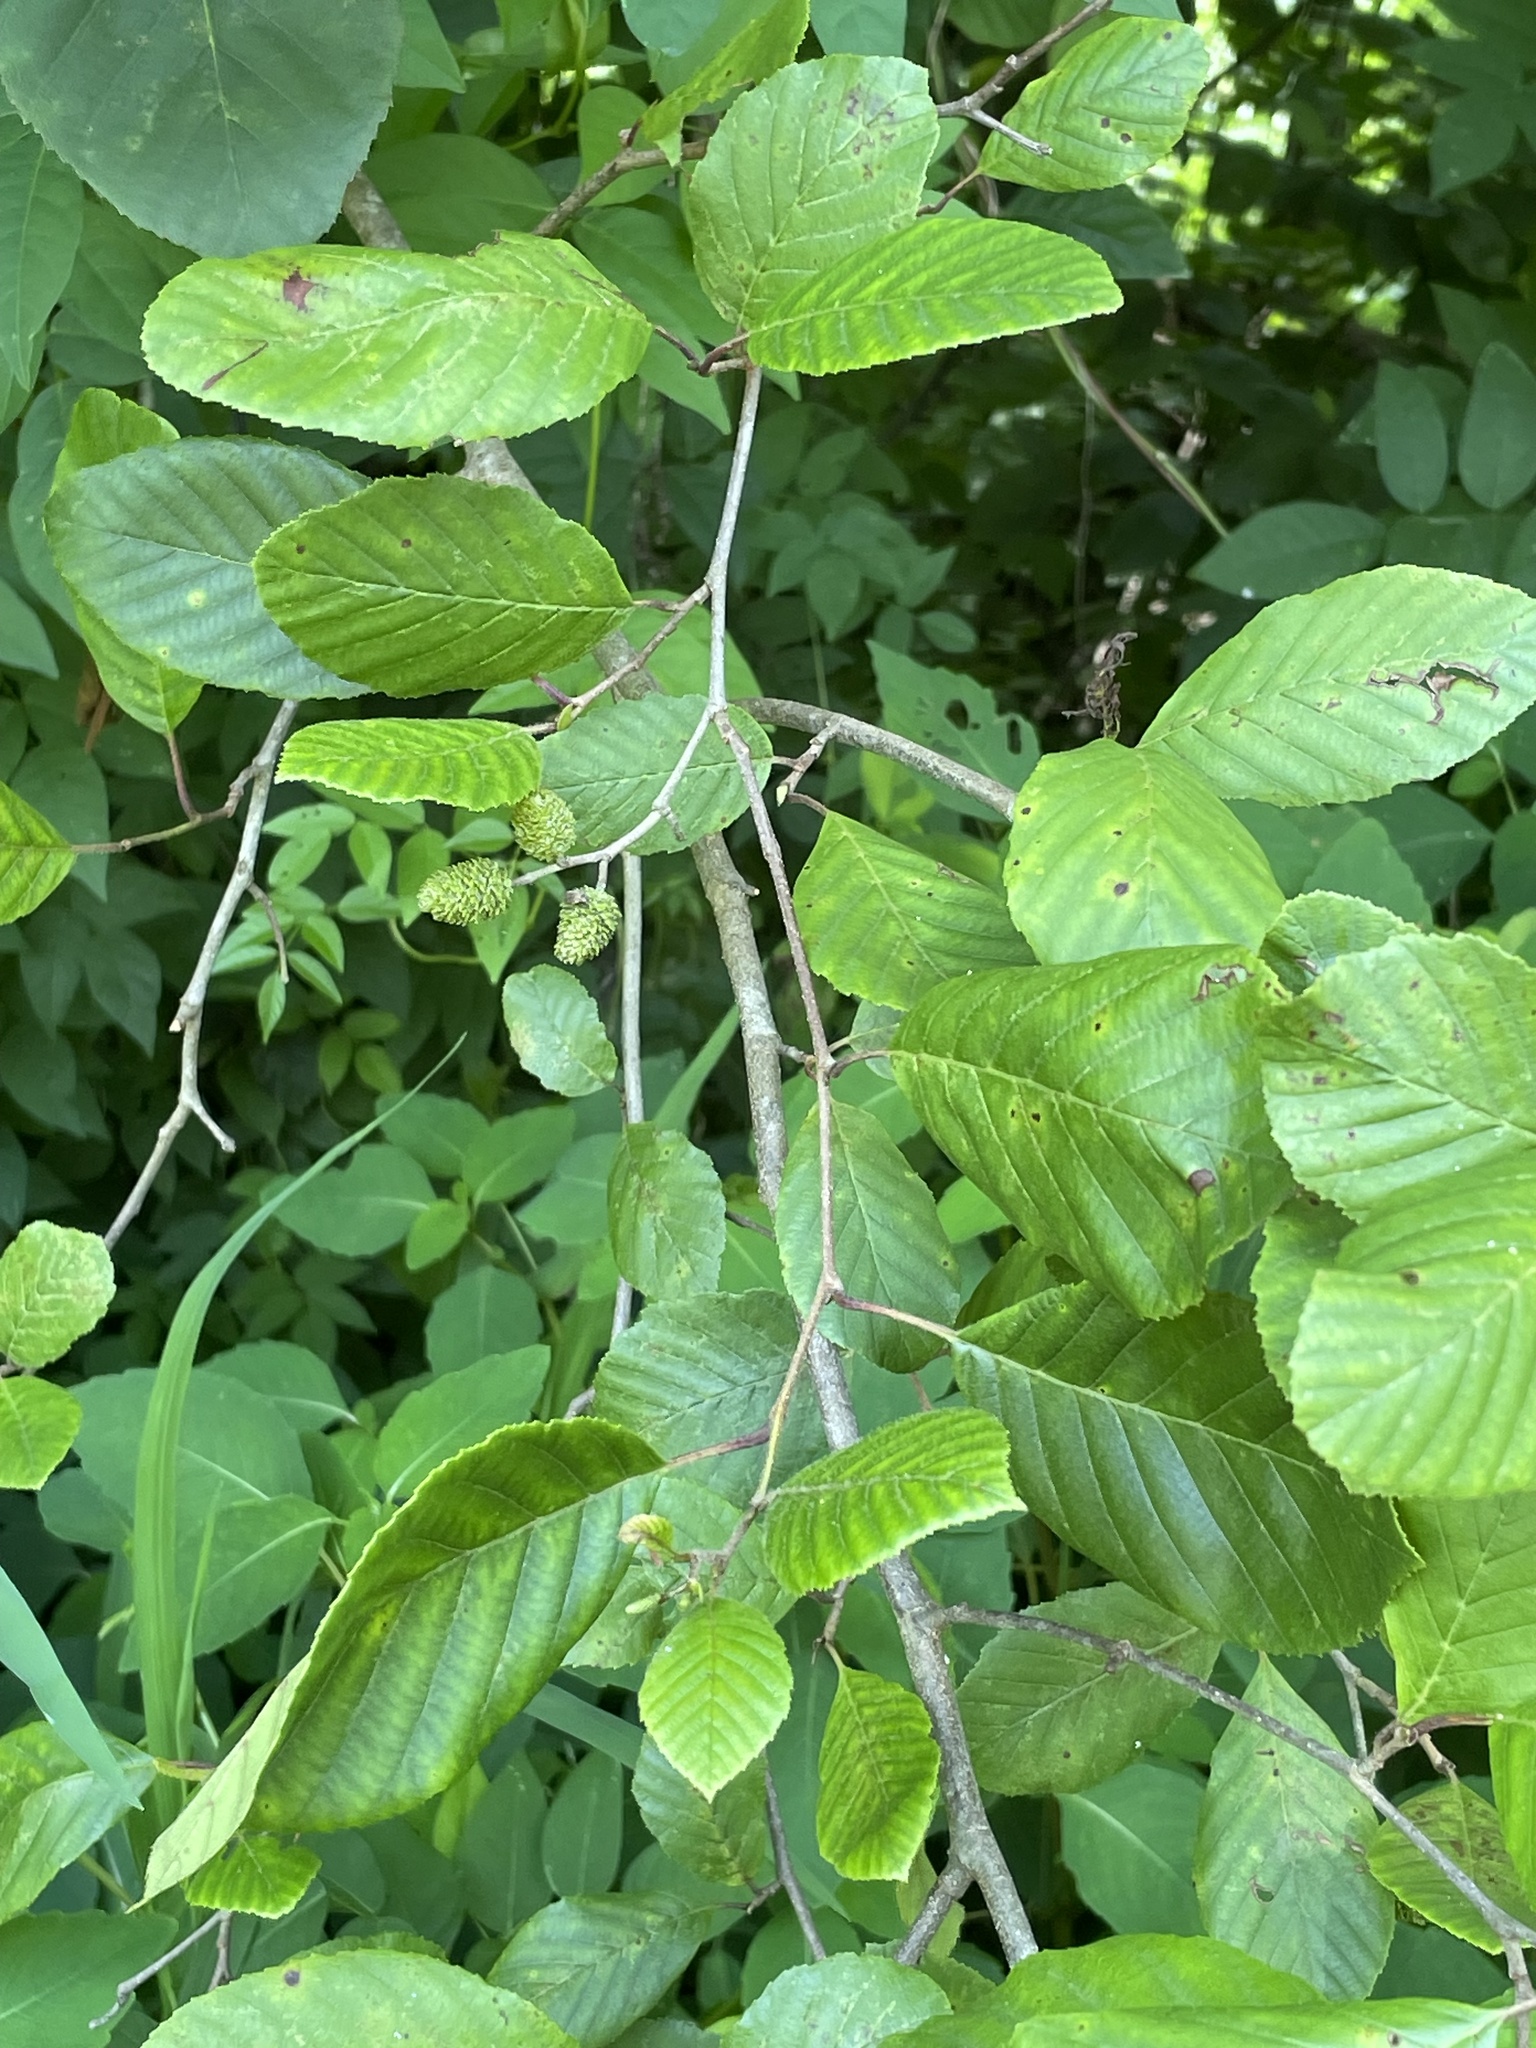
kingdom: Plantae
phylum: Tracheophyta
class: Magnoliopsida
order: Fagales
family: Betulaceae
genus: Alnus
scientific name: Alnus serrulata
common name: Hazel alder
